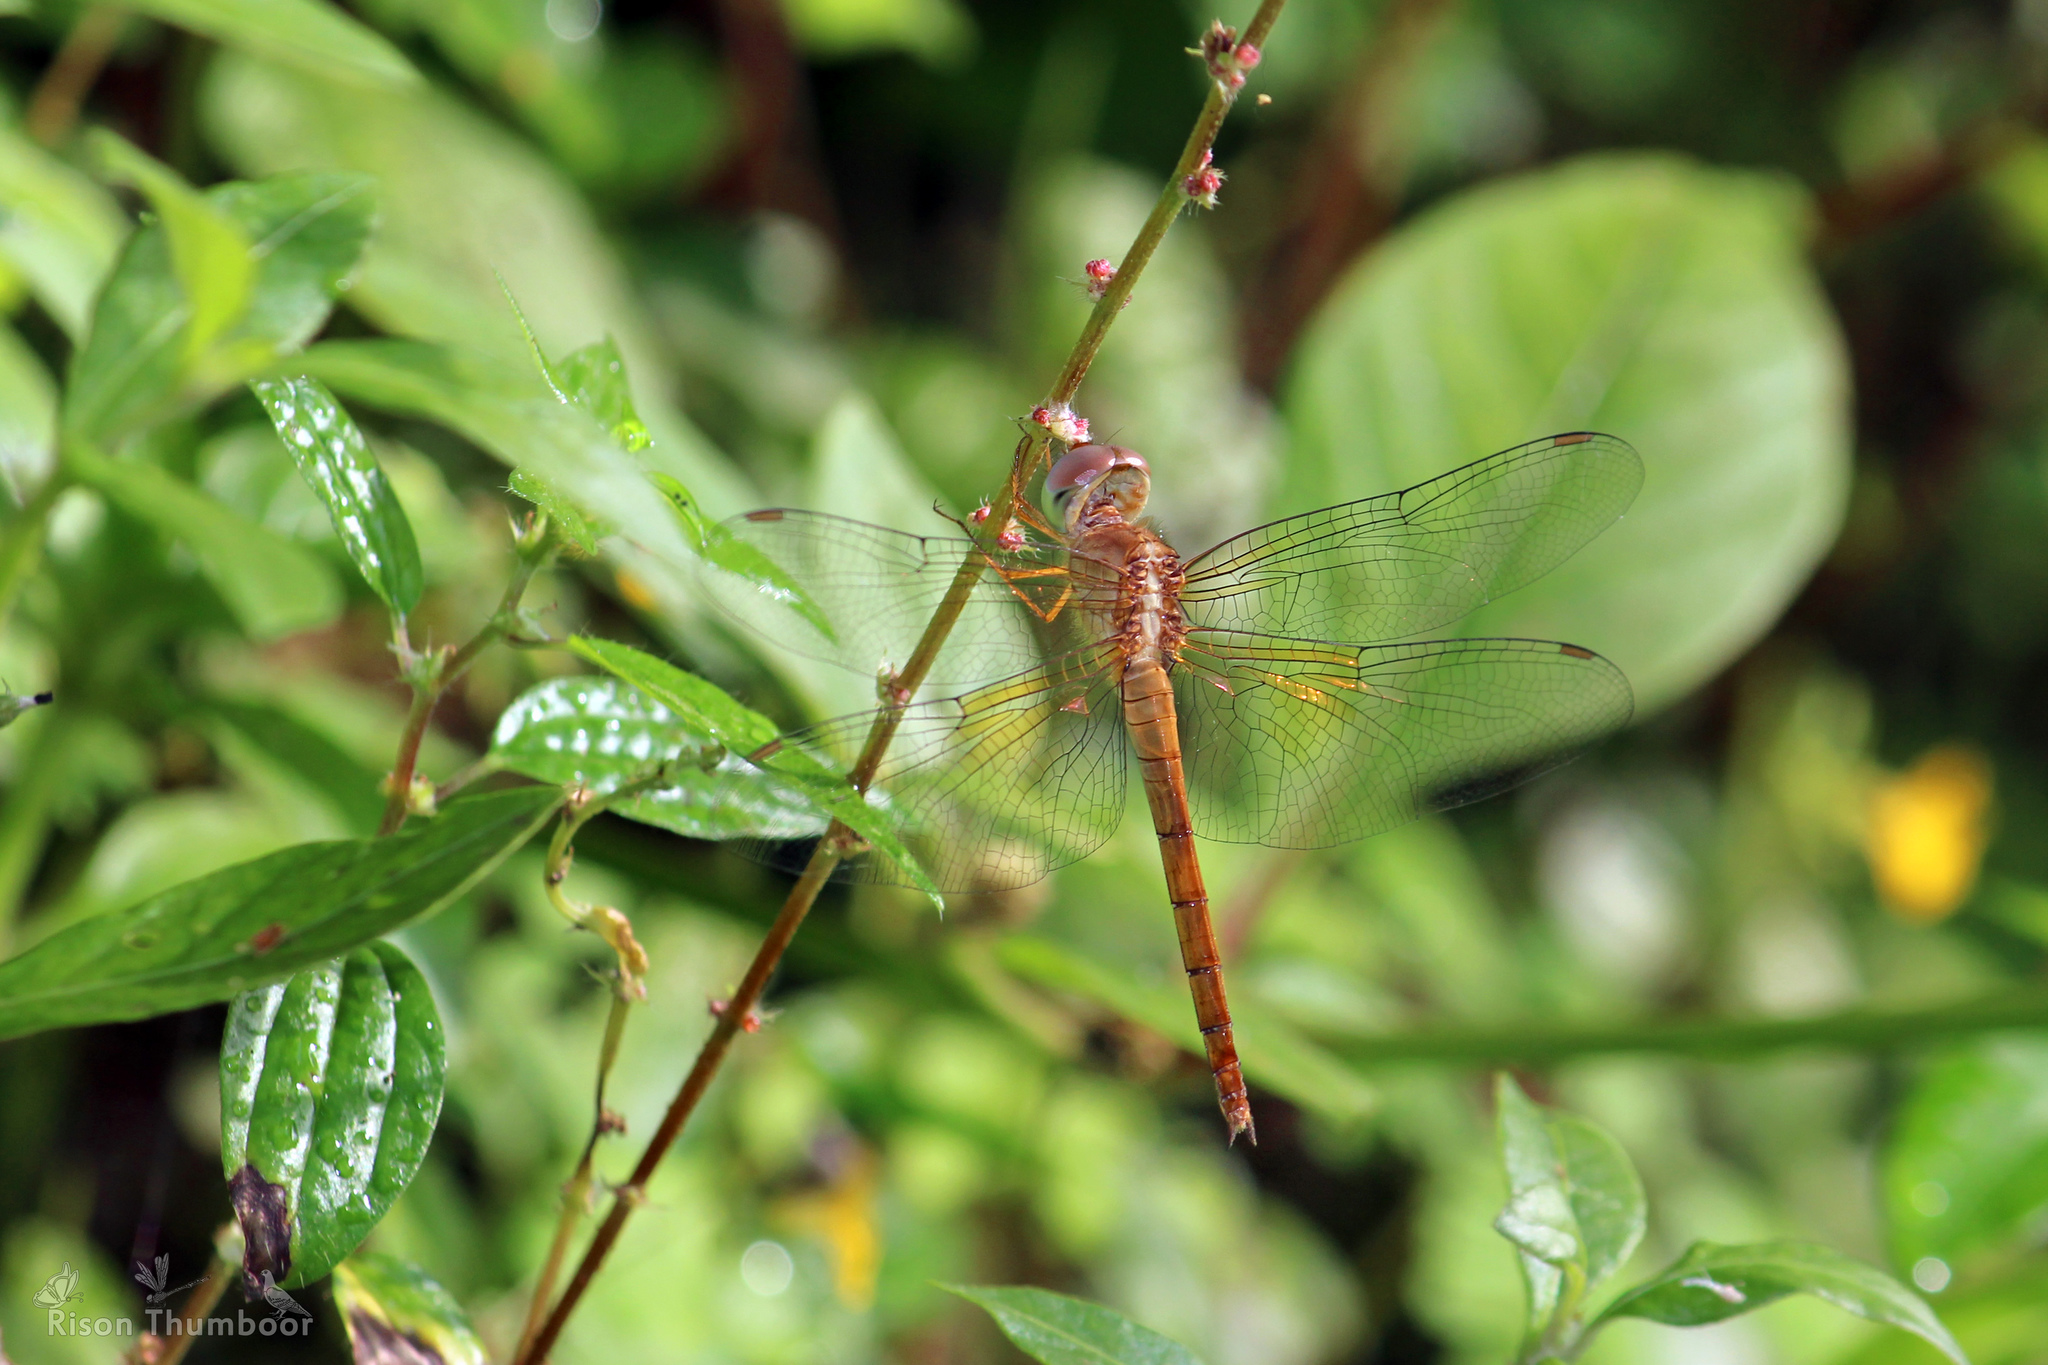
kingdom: Animalia
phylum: Arthropoda
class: Insecta
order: Odonata
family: Libellulidae
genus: Tholymis
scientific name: Tholymis tillarga
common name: Coral-tailed cloud wing
